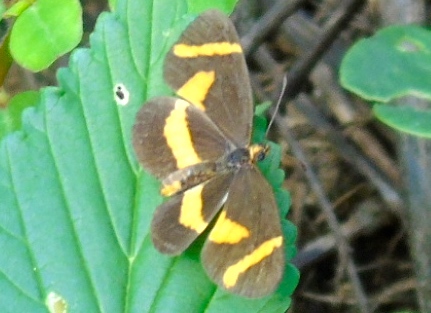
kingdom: Animalia
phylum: Arthropoda
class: Insecta
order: Lepidoptera
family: Nymphalidae
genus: Microtia
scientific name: Microtia elva
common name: Elf
